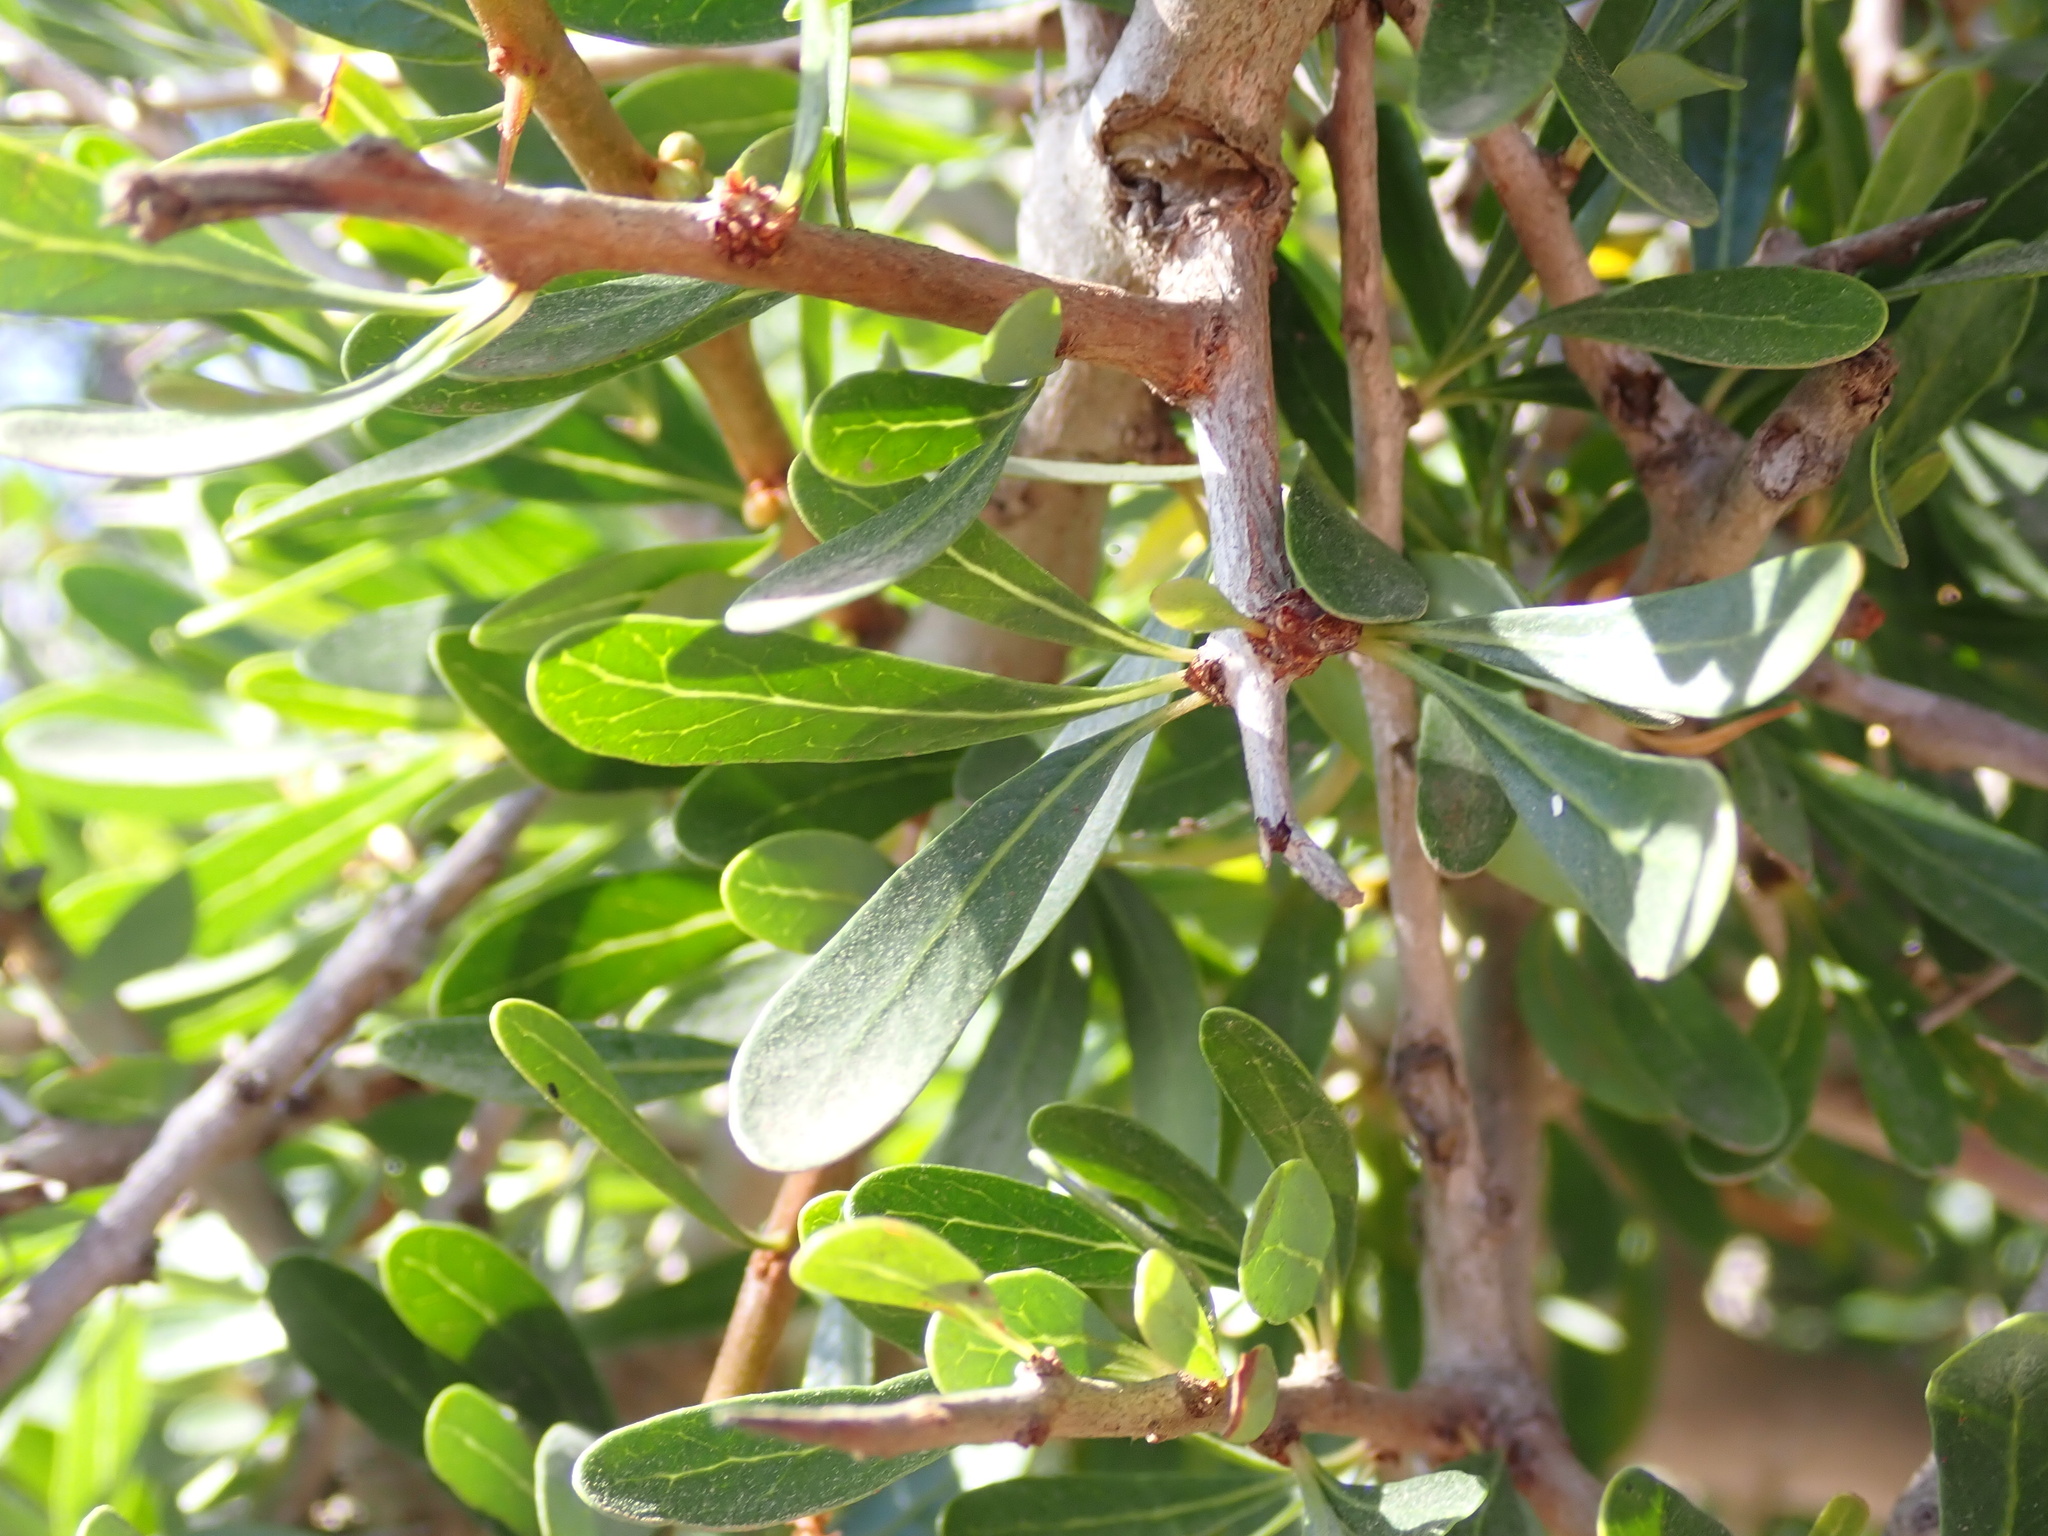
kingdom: Plantae
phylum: Tracheophyta
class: Magnoliopsida
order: Ericales
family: Sapotaceae
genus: Sideroxylon
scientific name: Sideroxylon spinosum
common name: Argan
